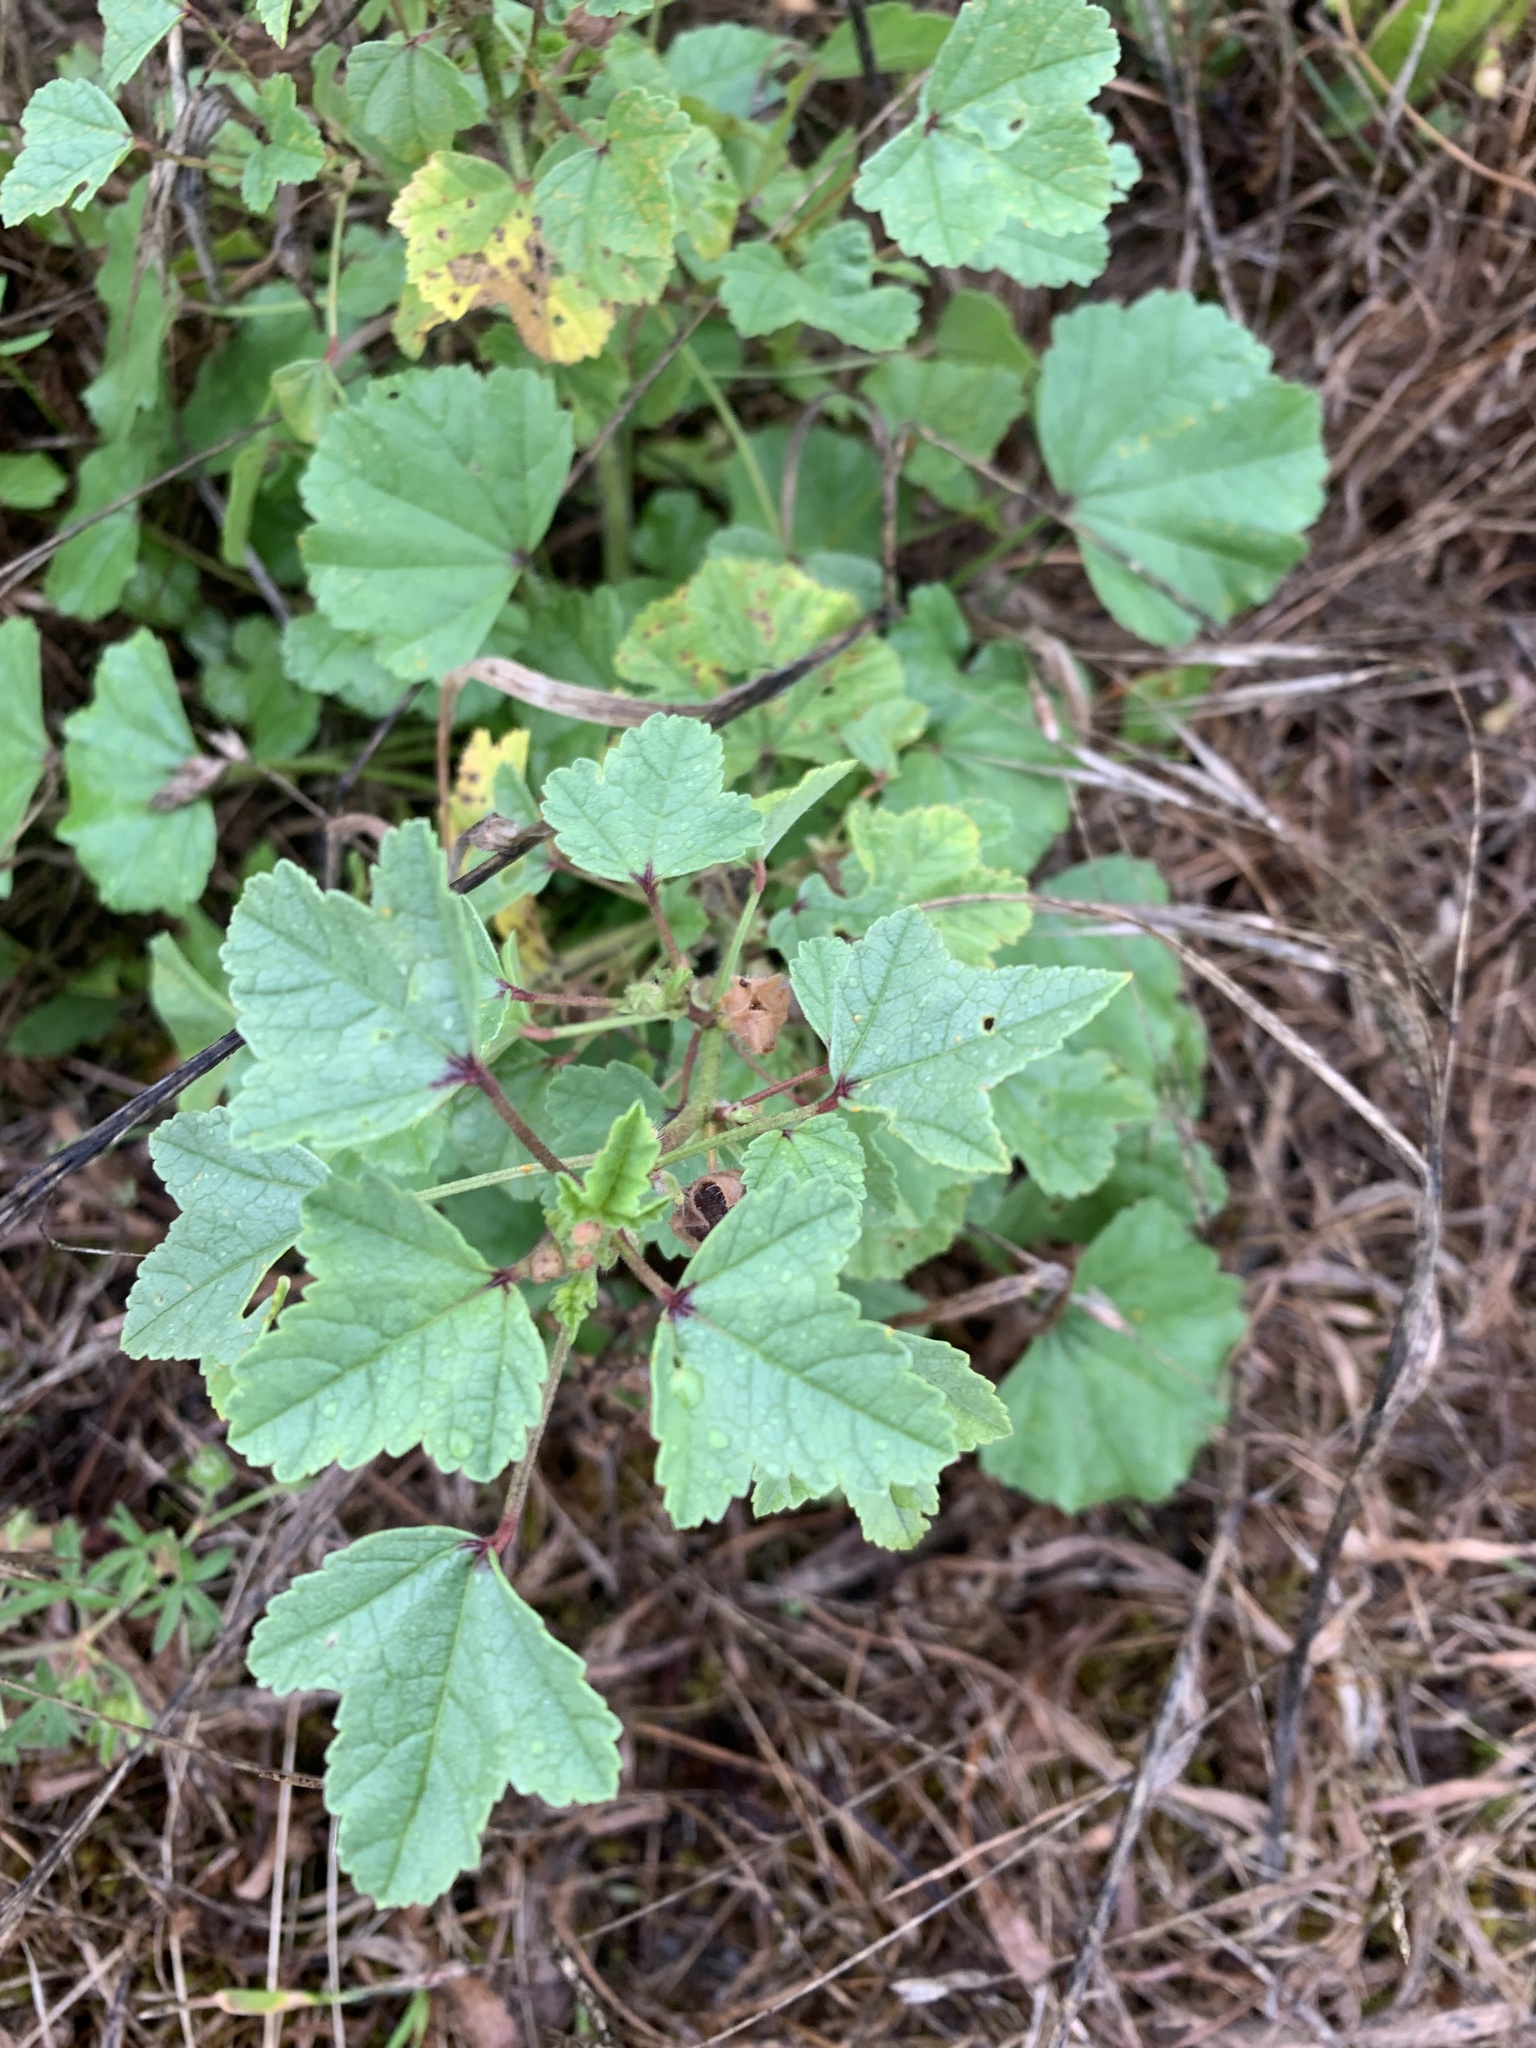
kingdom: Plantae
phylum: Tracheophyta
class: Magnoliopsida
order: Malvales
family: Malvaceae
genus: Malva
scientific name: Malva sylvestris
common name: Common mallow
